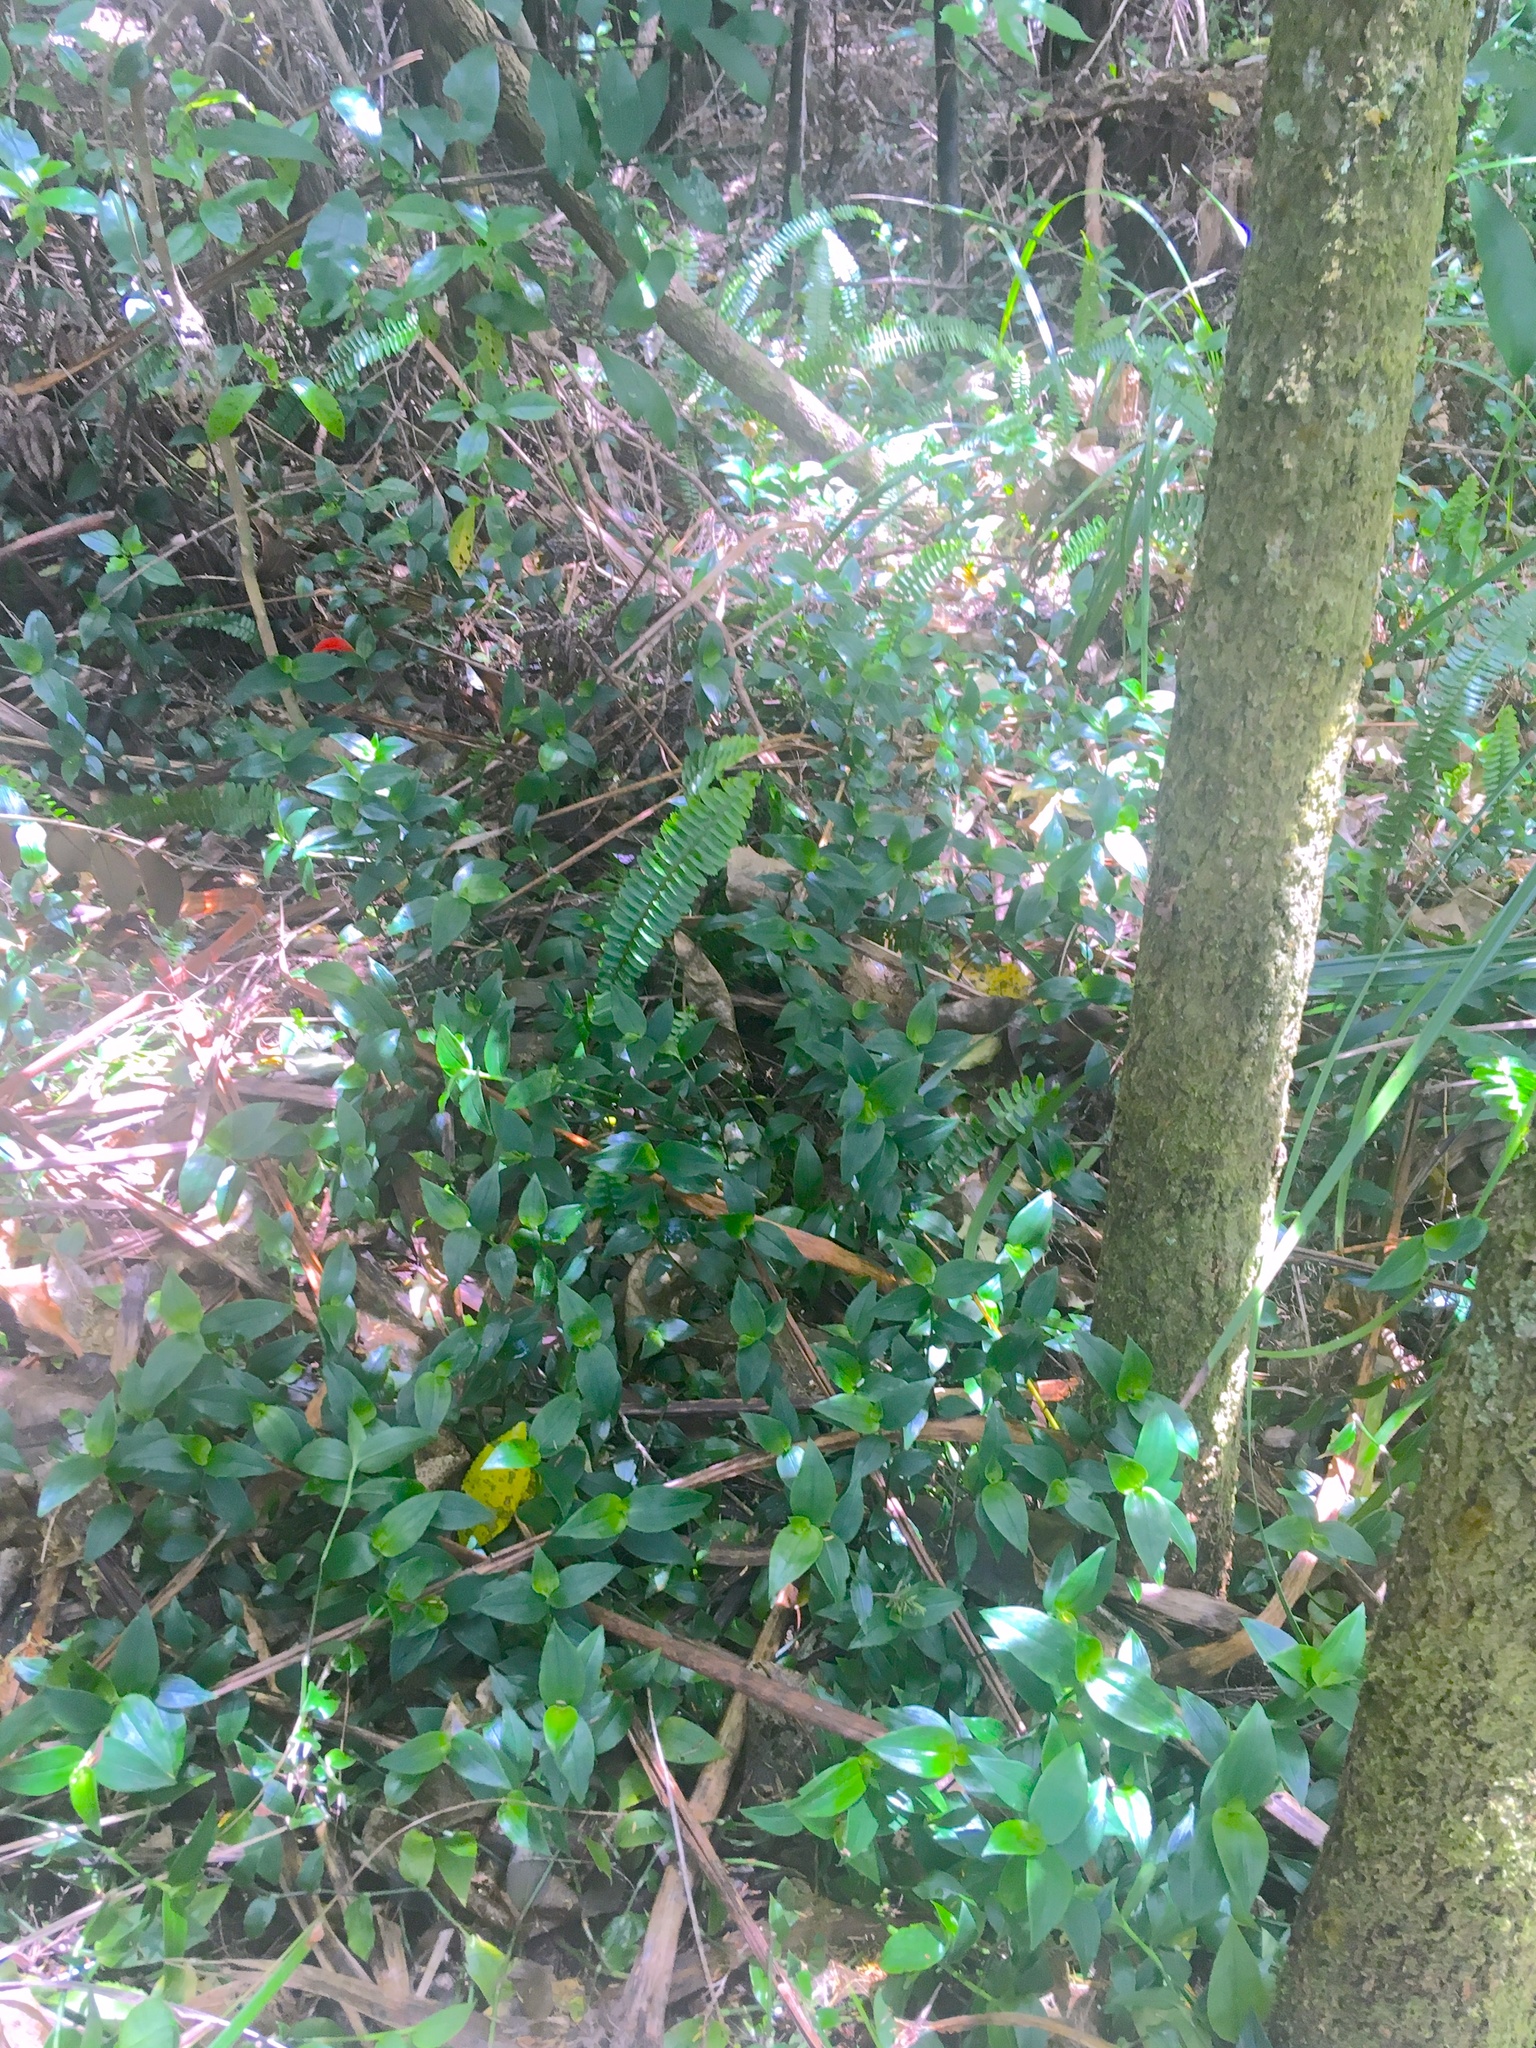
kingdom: Plantae
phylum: Tracheophyta
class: Polypodiopsida
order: Polypodiales
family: Nephrolepidaceae
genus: Nephrolepis
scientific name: Nephrolepis cordifolia
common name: Narrow swordfern
